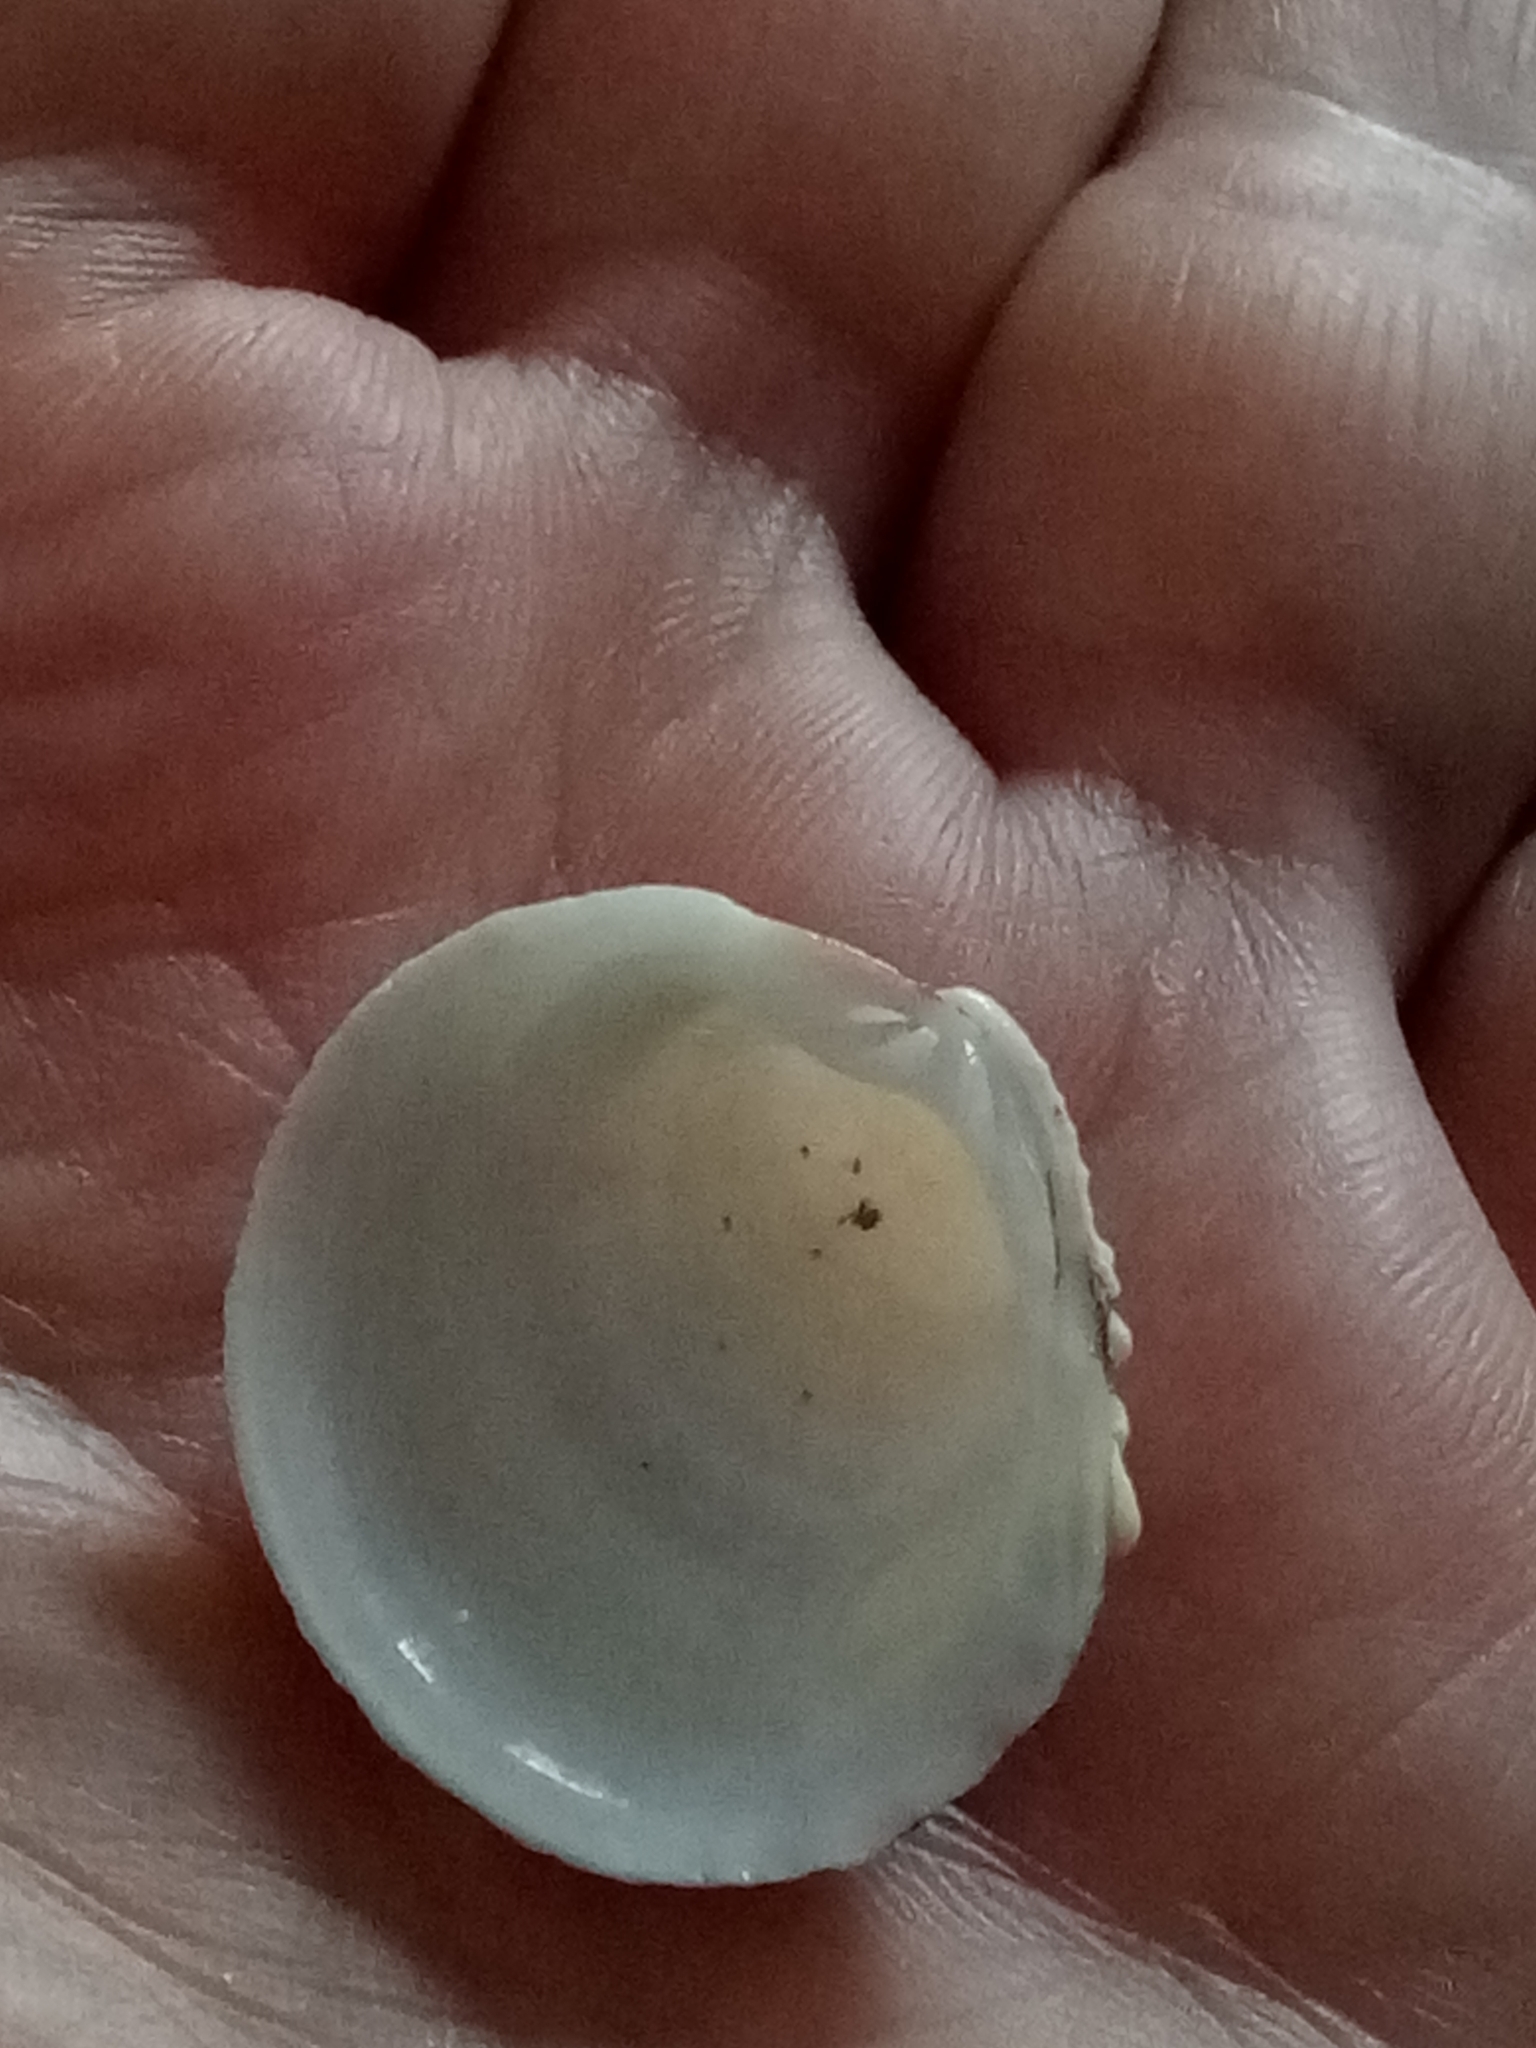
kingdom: Animalia
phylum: Mollusca
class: Bivalvia
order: Venerida
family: Veneridae
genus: Venus
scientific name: Venus verrucosa
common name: Warty venus
